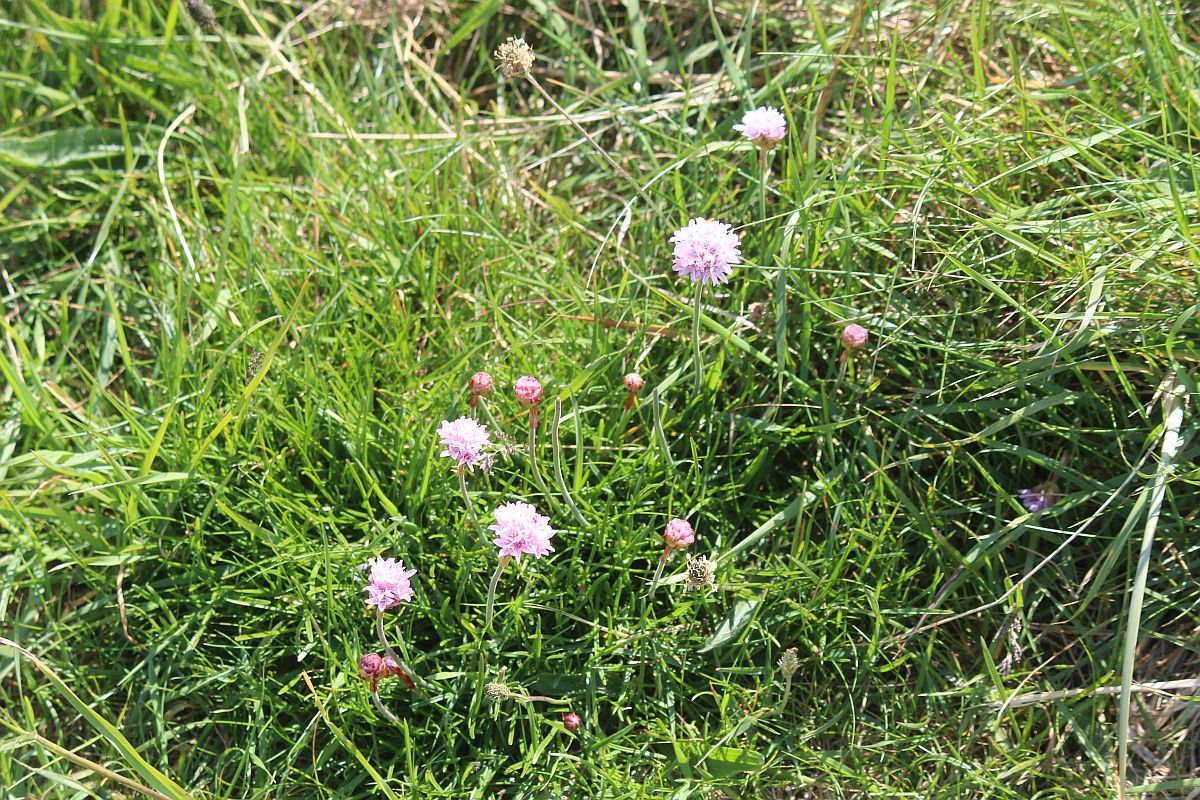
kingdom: Plantae
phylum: Tracheophyta
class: Magnoliopsida
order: Caryophyllales
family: Plumbaginaceae
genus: Armeria
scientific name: Armeria maritima
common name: Thrift
